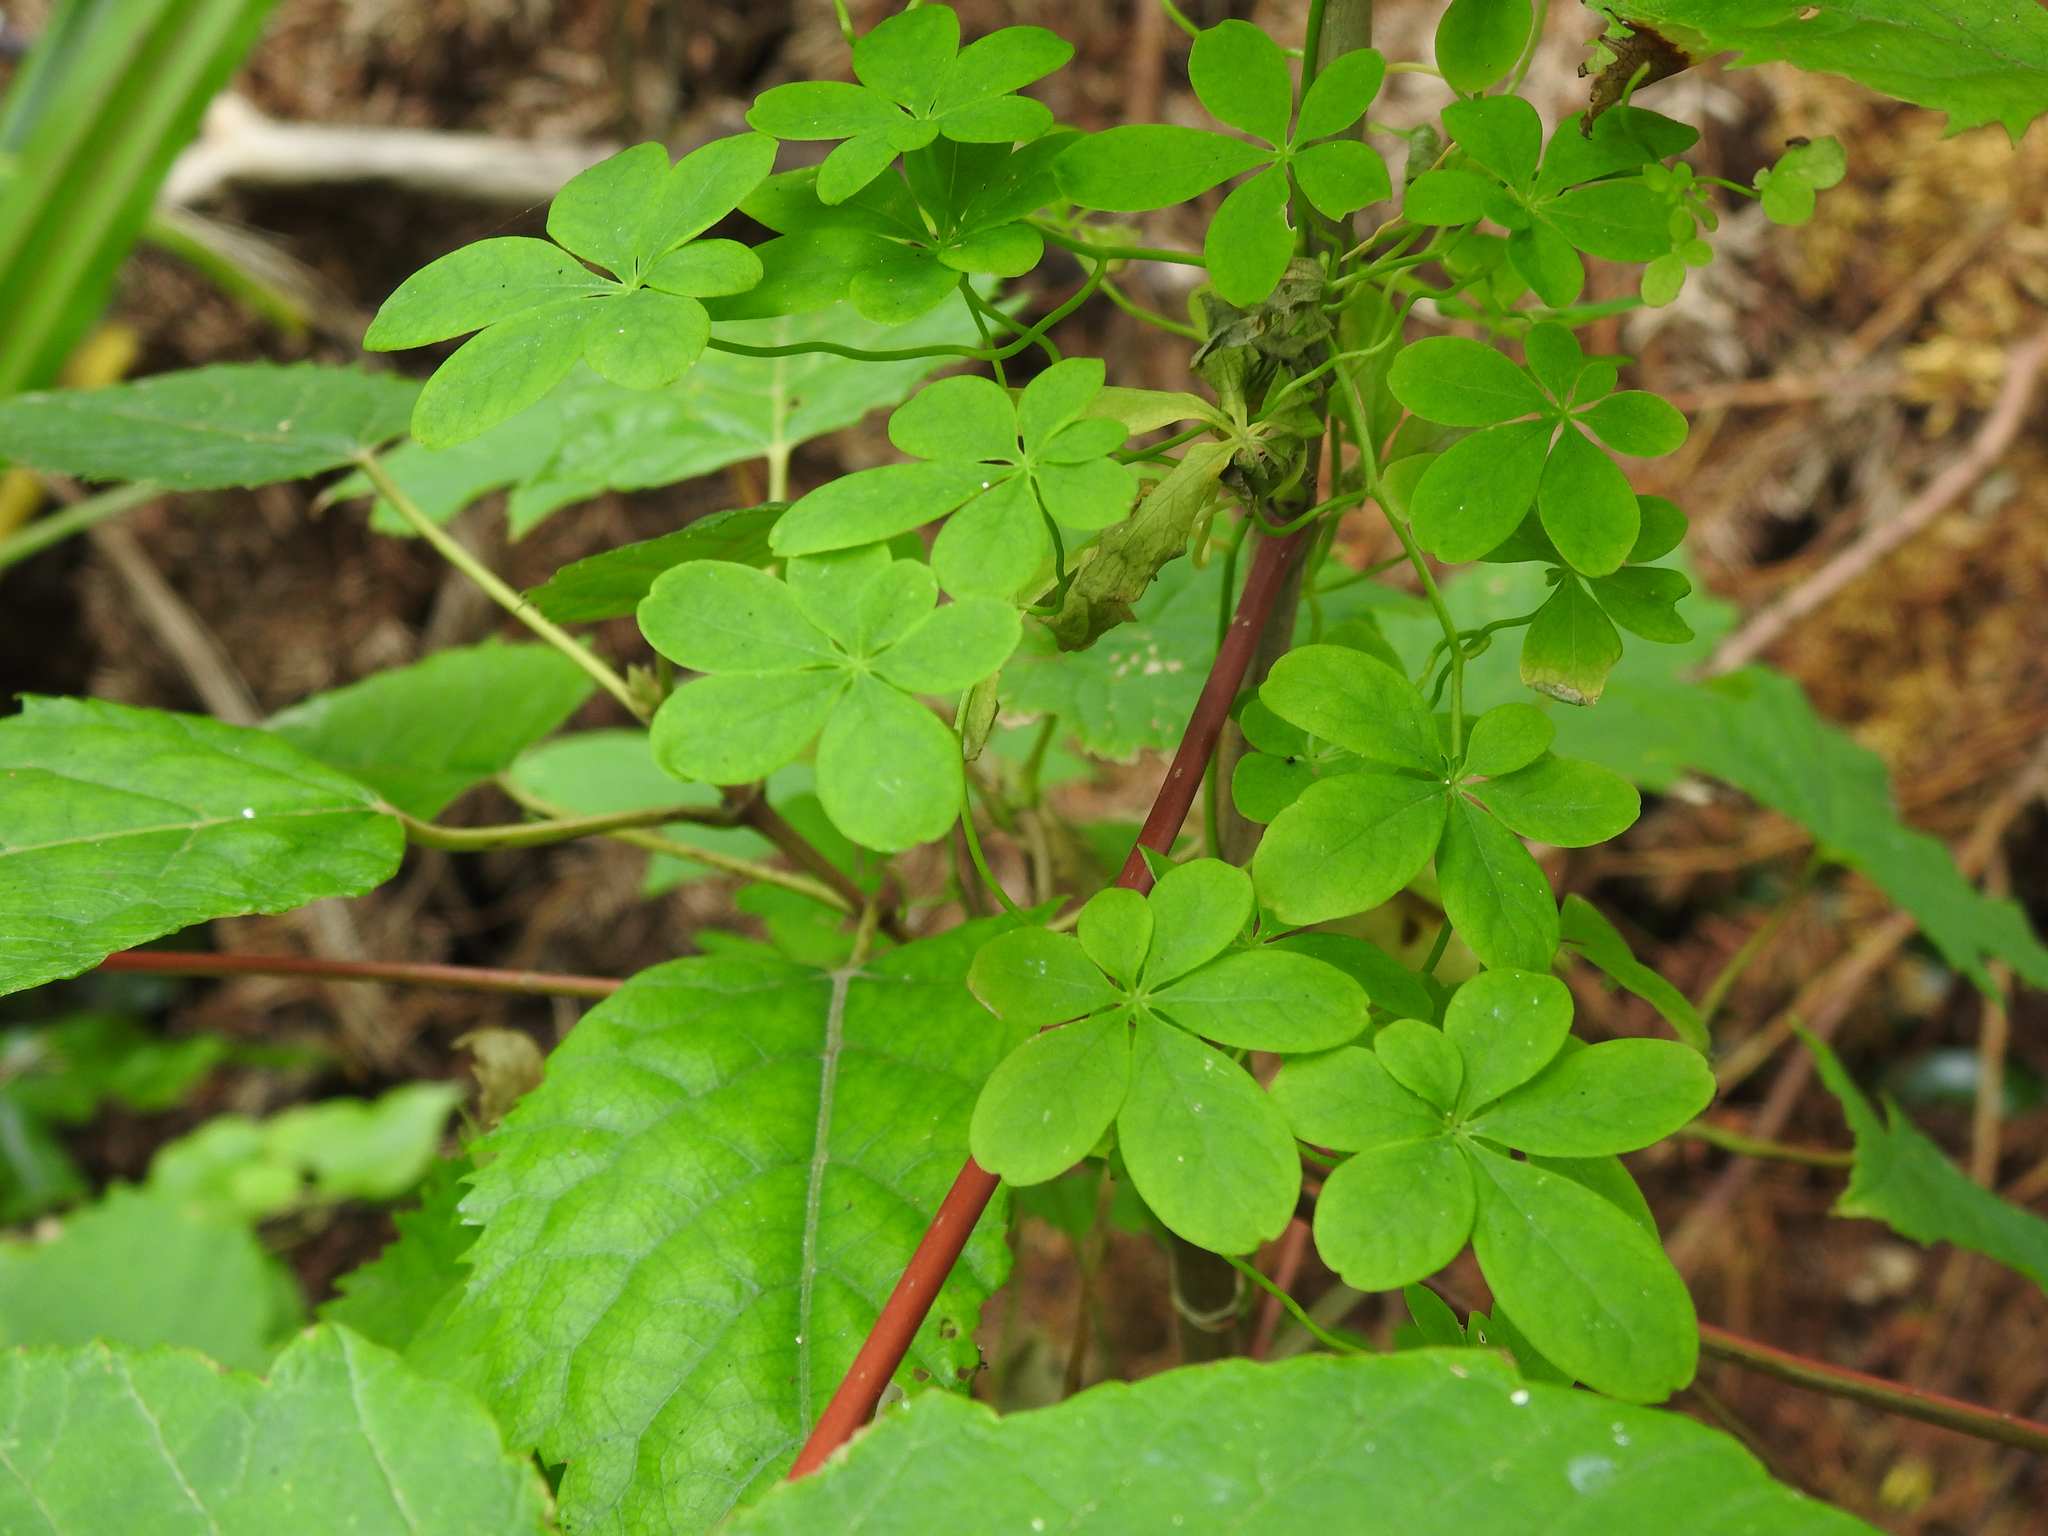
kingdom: Plantae
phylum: Tracheophyta
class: Magnoliopsida
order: Brassicales
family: Tropaeolaceae
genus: Tropaeolum
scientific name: Tropaeolum speciosum
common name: Flame nasturtium
